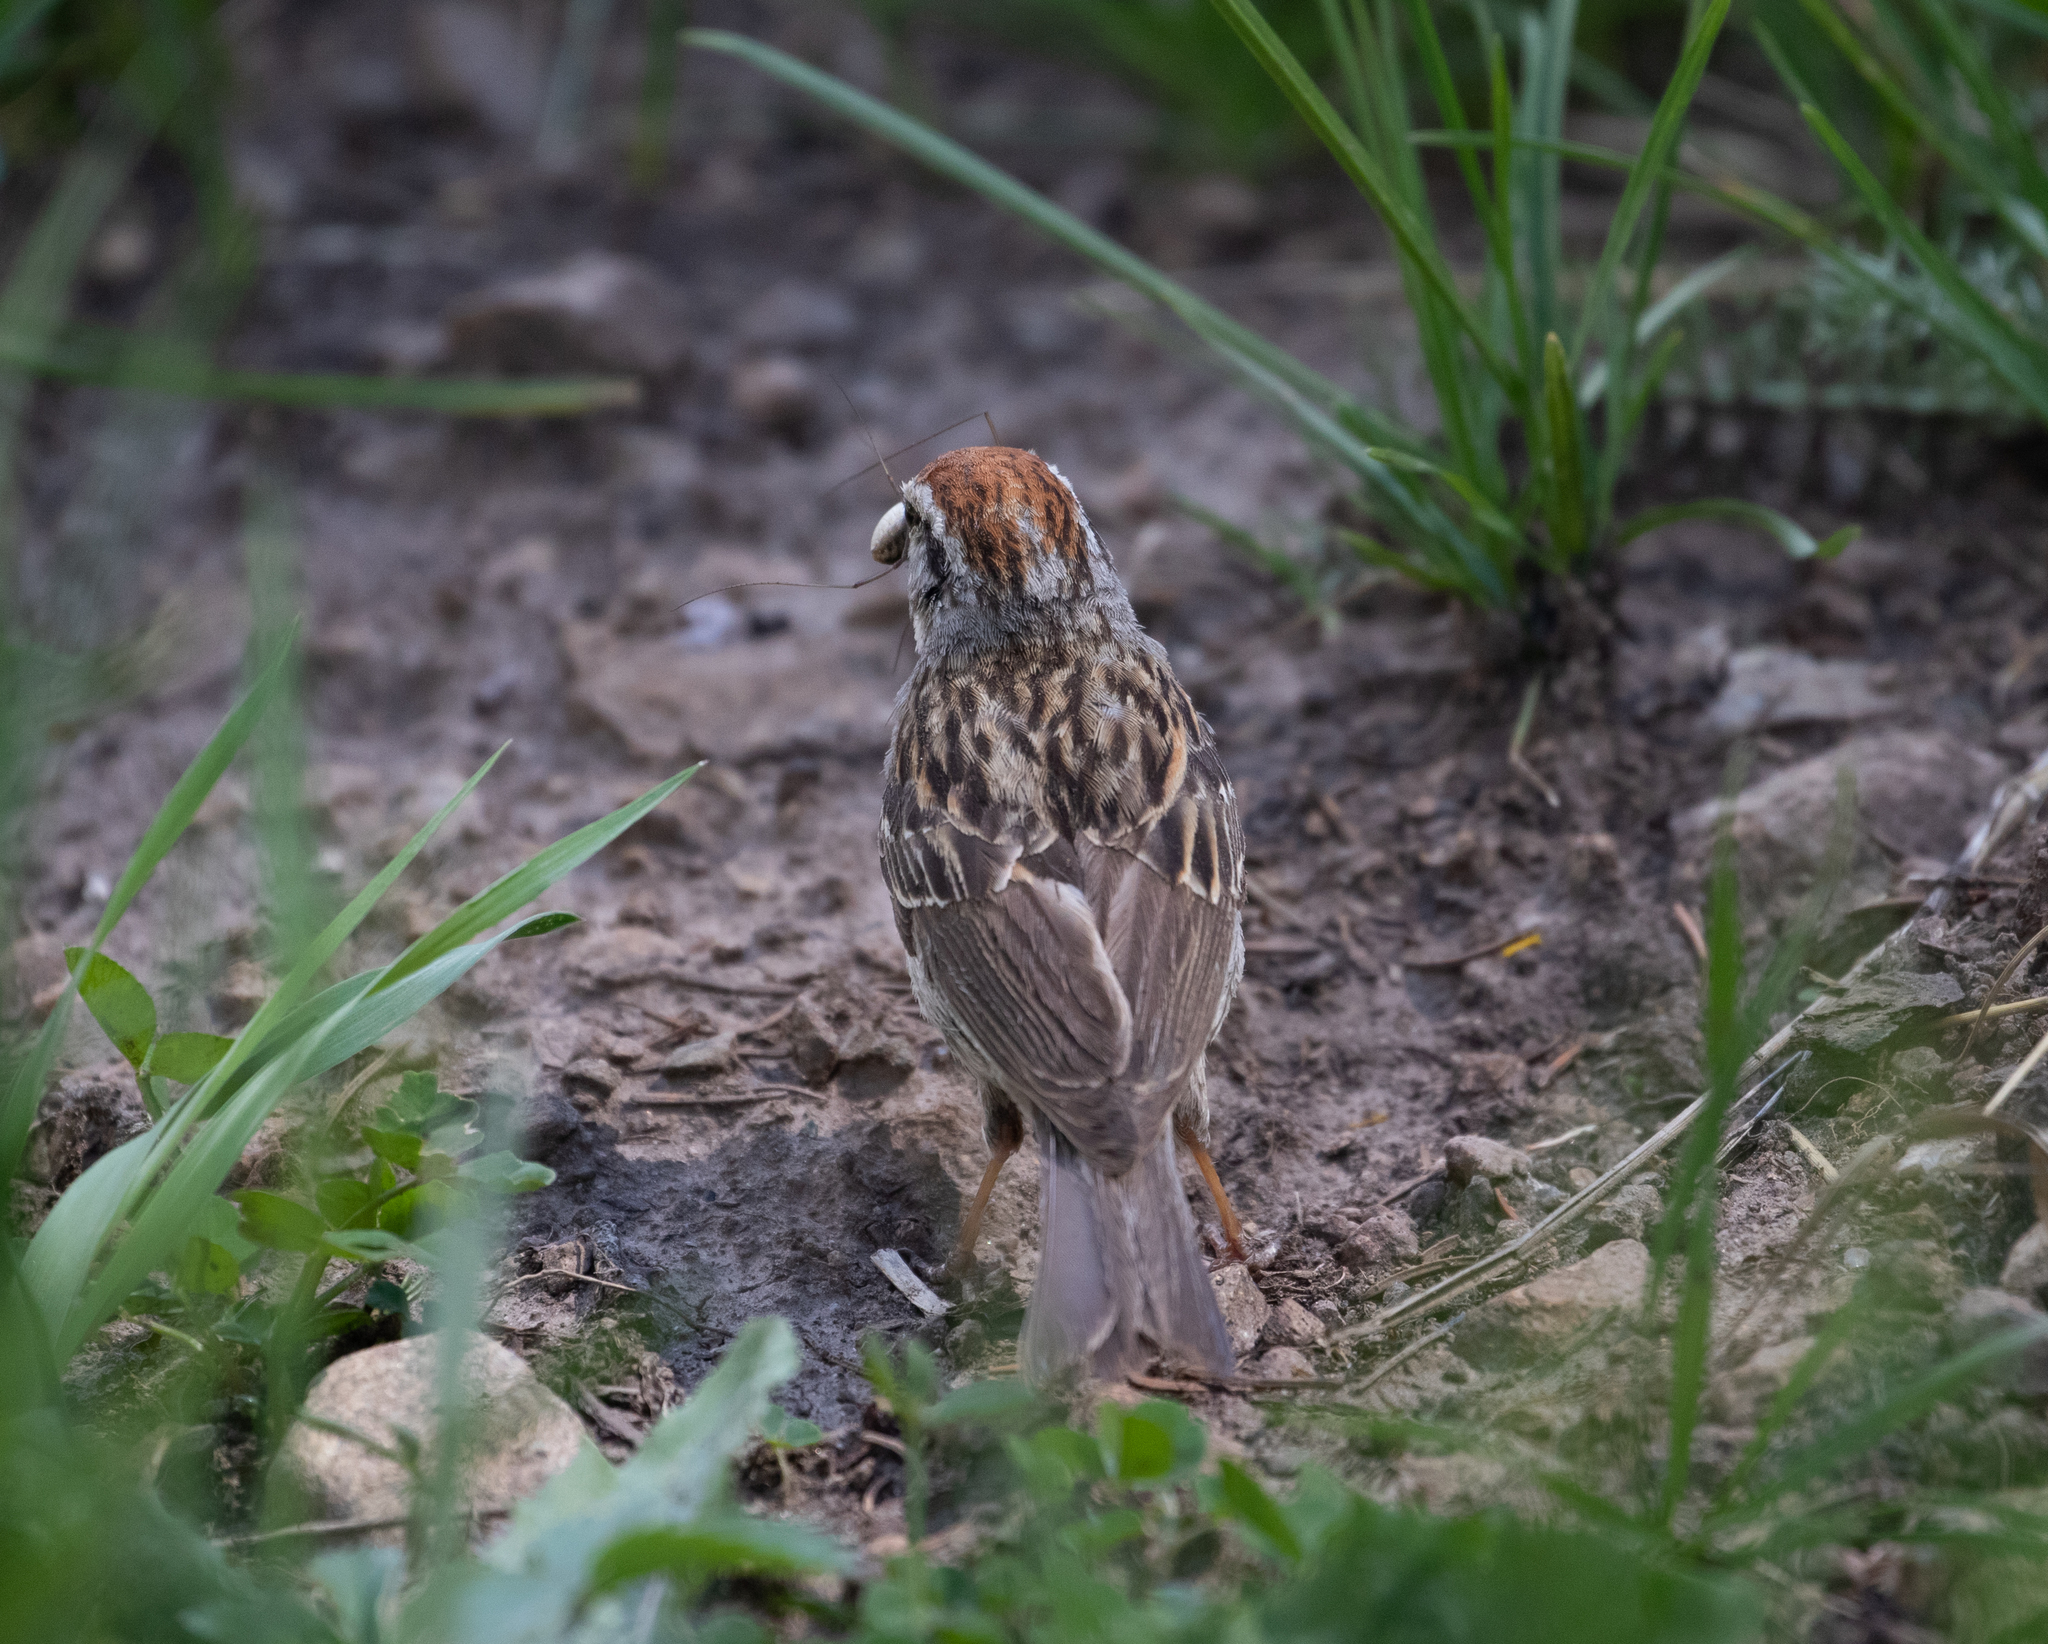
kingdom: Animalia
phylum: Chordata
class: Aves
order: Passeriformes
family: Passerellidae
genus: Spizella
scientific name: Spizella passerina
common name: Chipping sparrow
